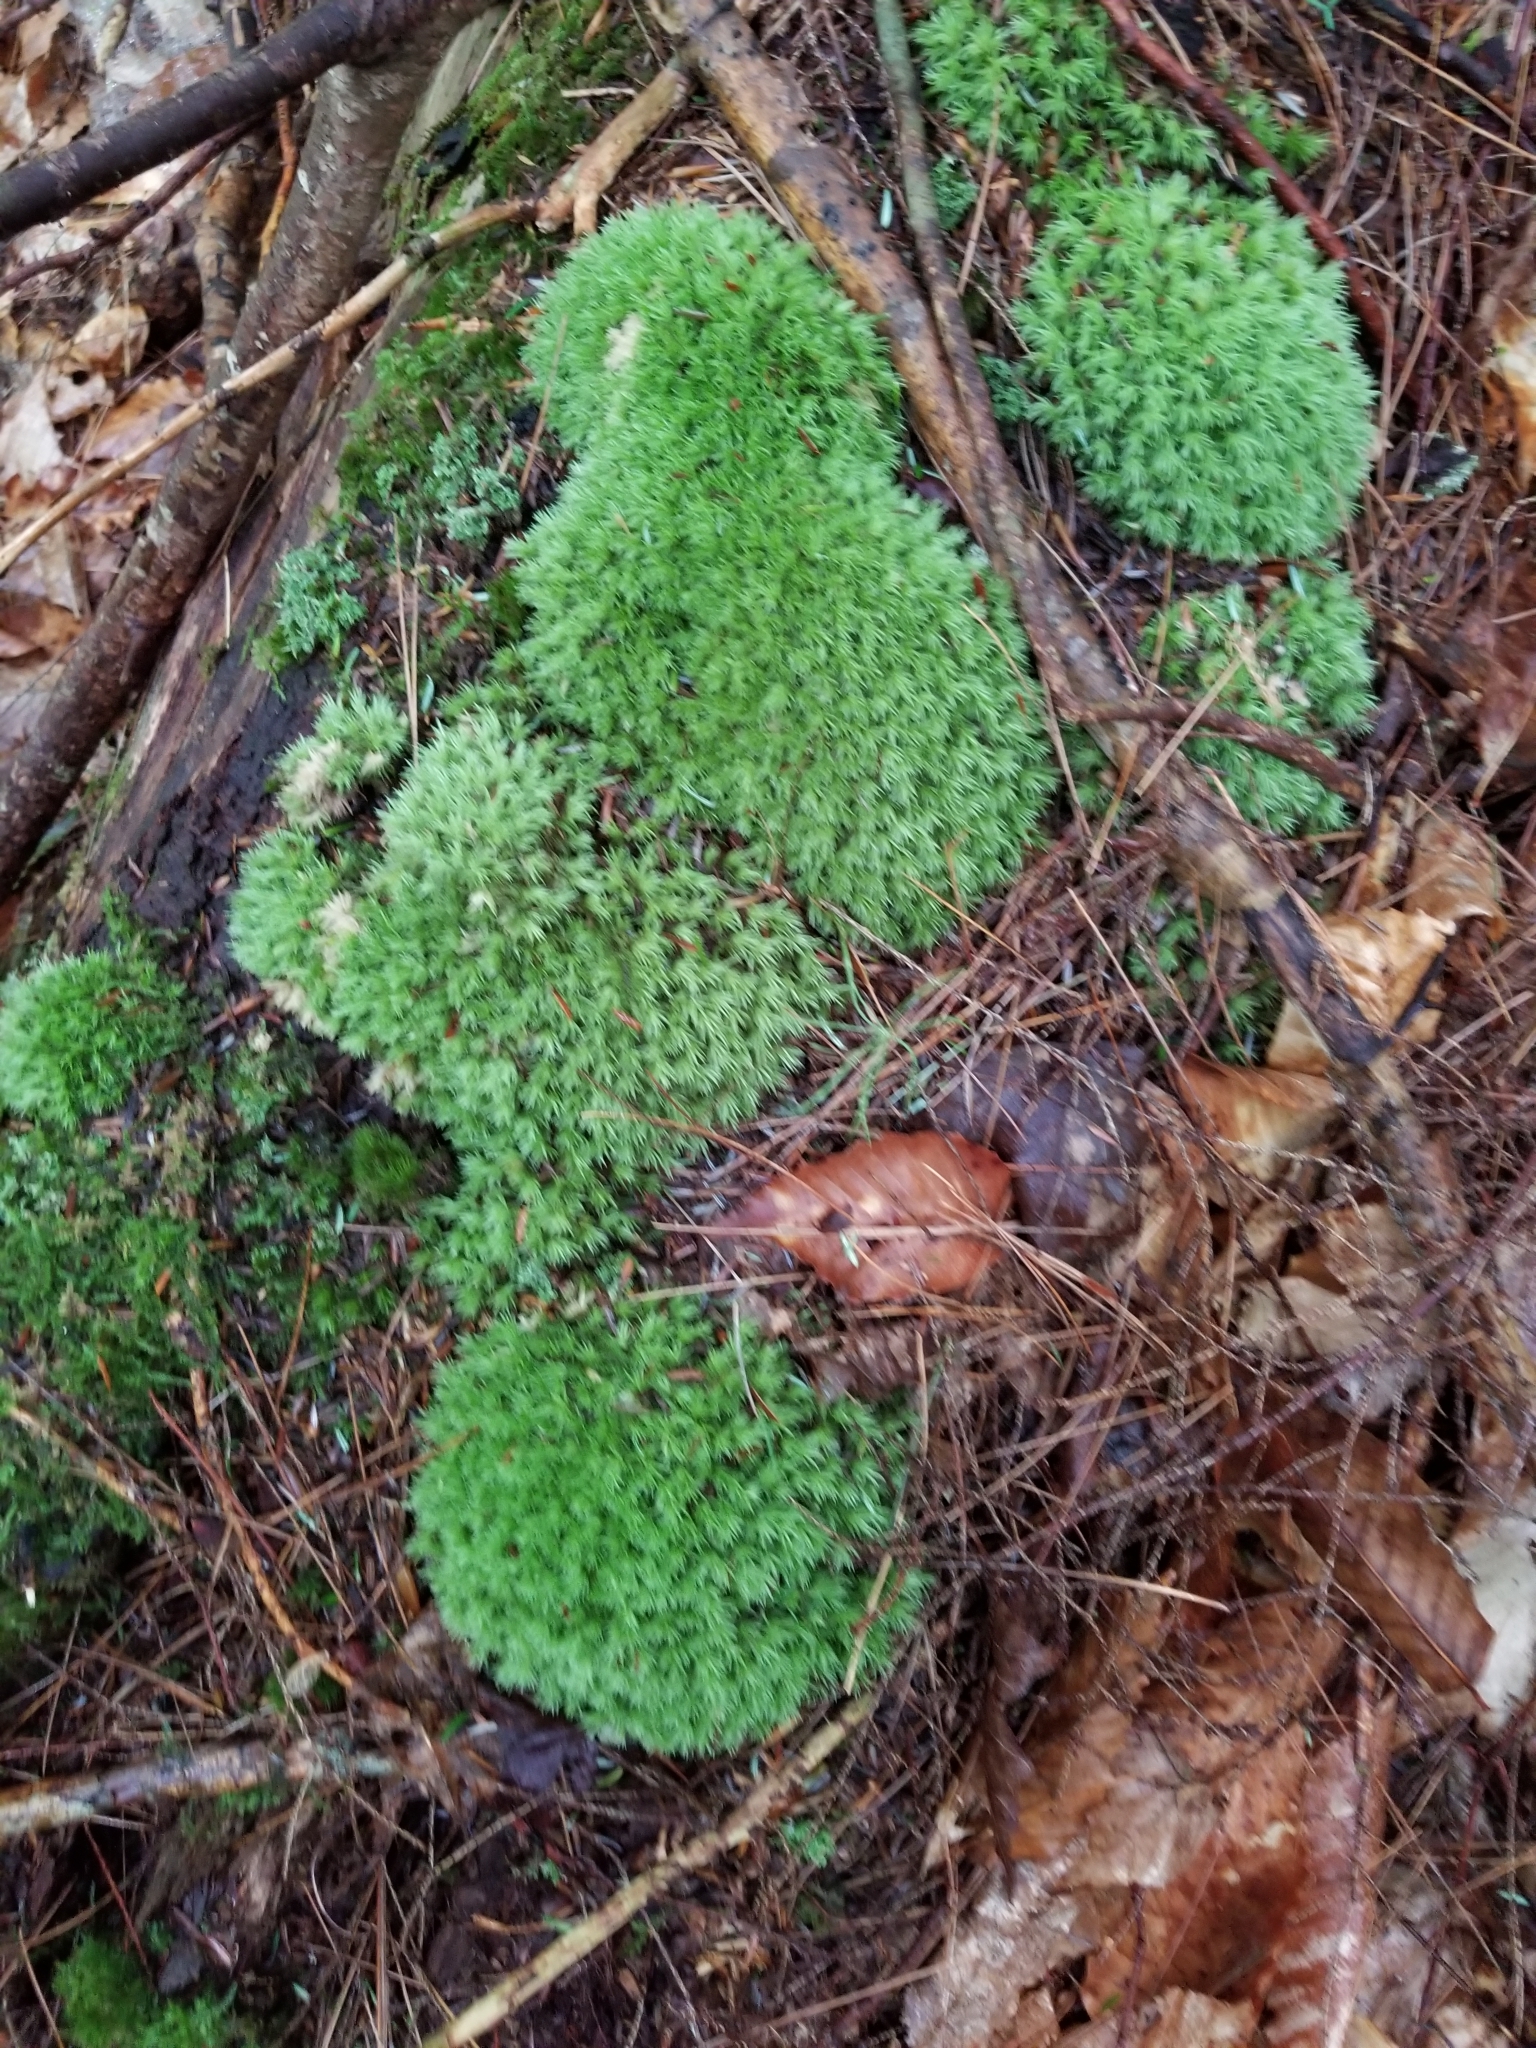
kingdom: Plantae
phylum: Bryophyta
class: Bryopsida
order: Dicranales
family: Leucobryaceae
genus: Leucobryum
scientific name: Leucobryum glaucum
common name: Large white-moss
